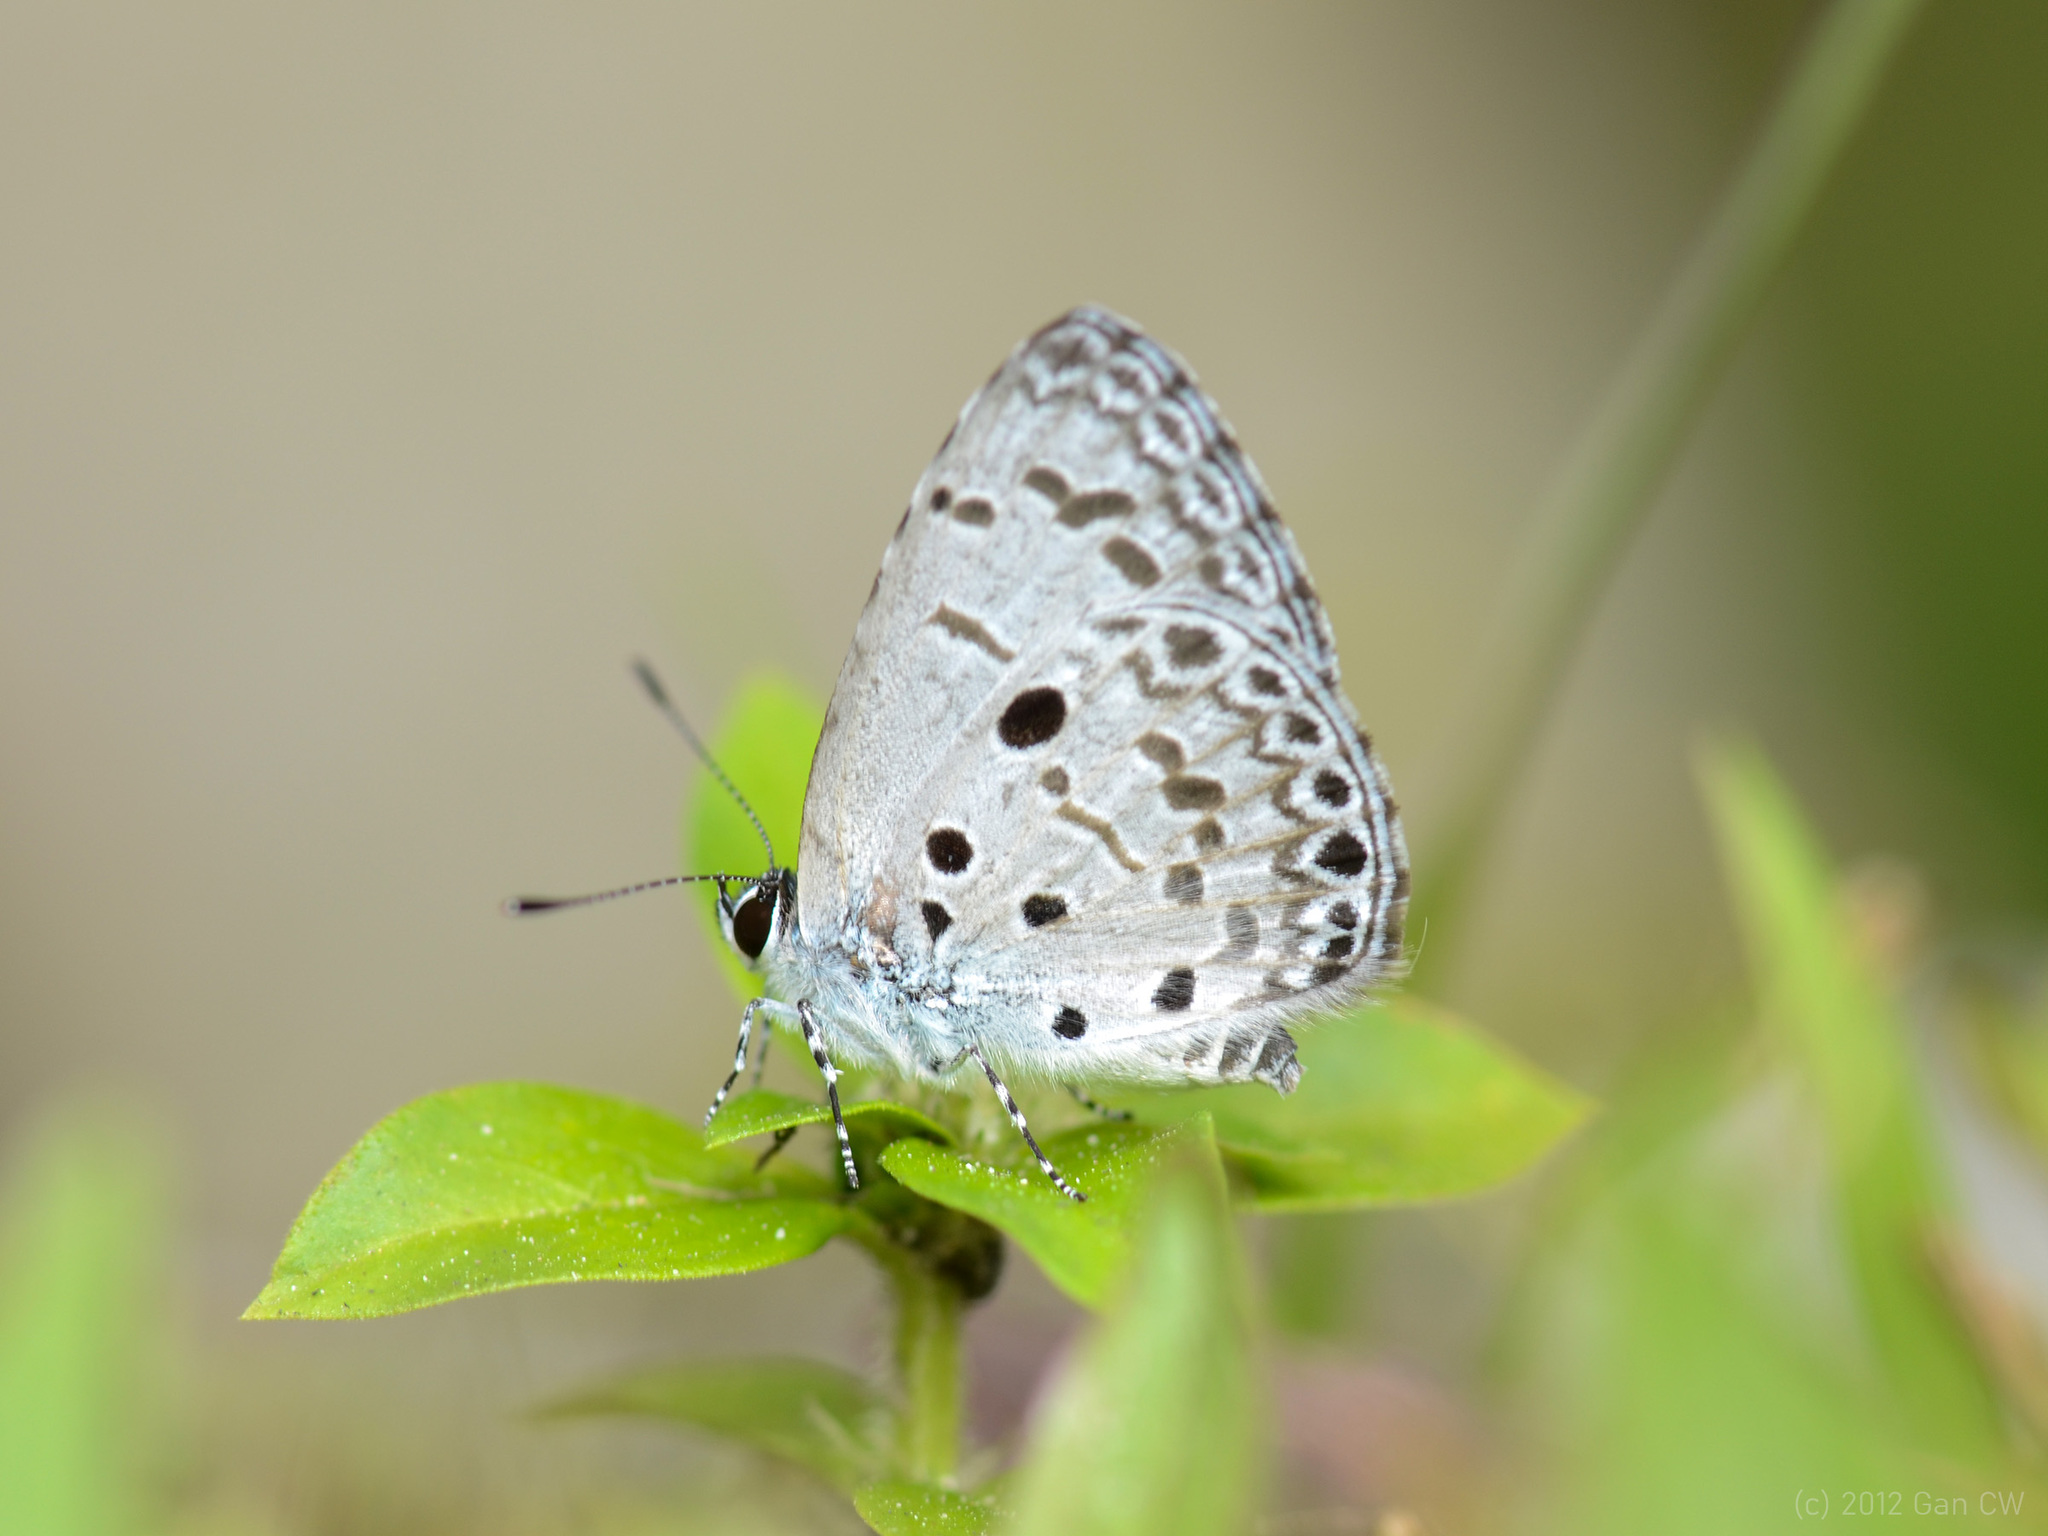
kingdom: Animalia
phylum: Arthropoda
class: Insecta
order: Lepidoptera
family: Lycaenidae
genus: Acytolepis
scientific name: Acytolepis puspa
